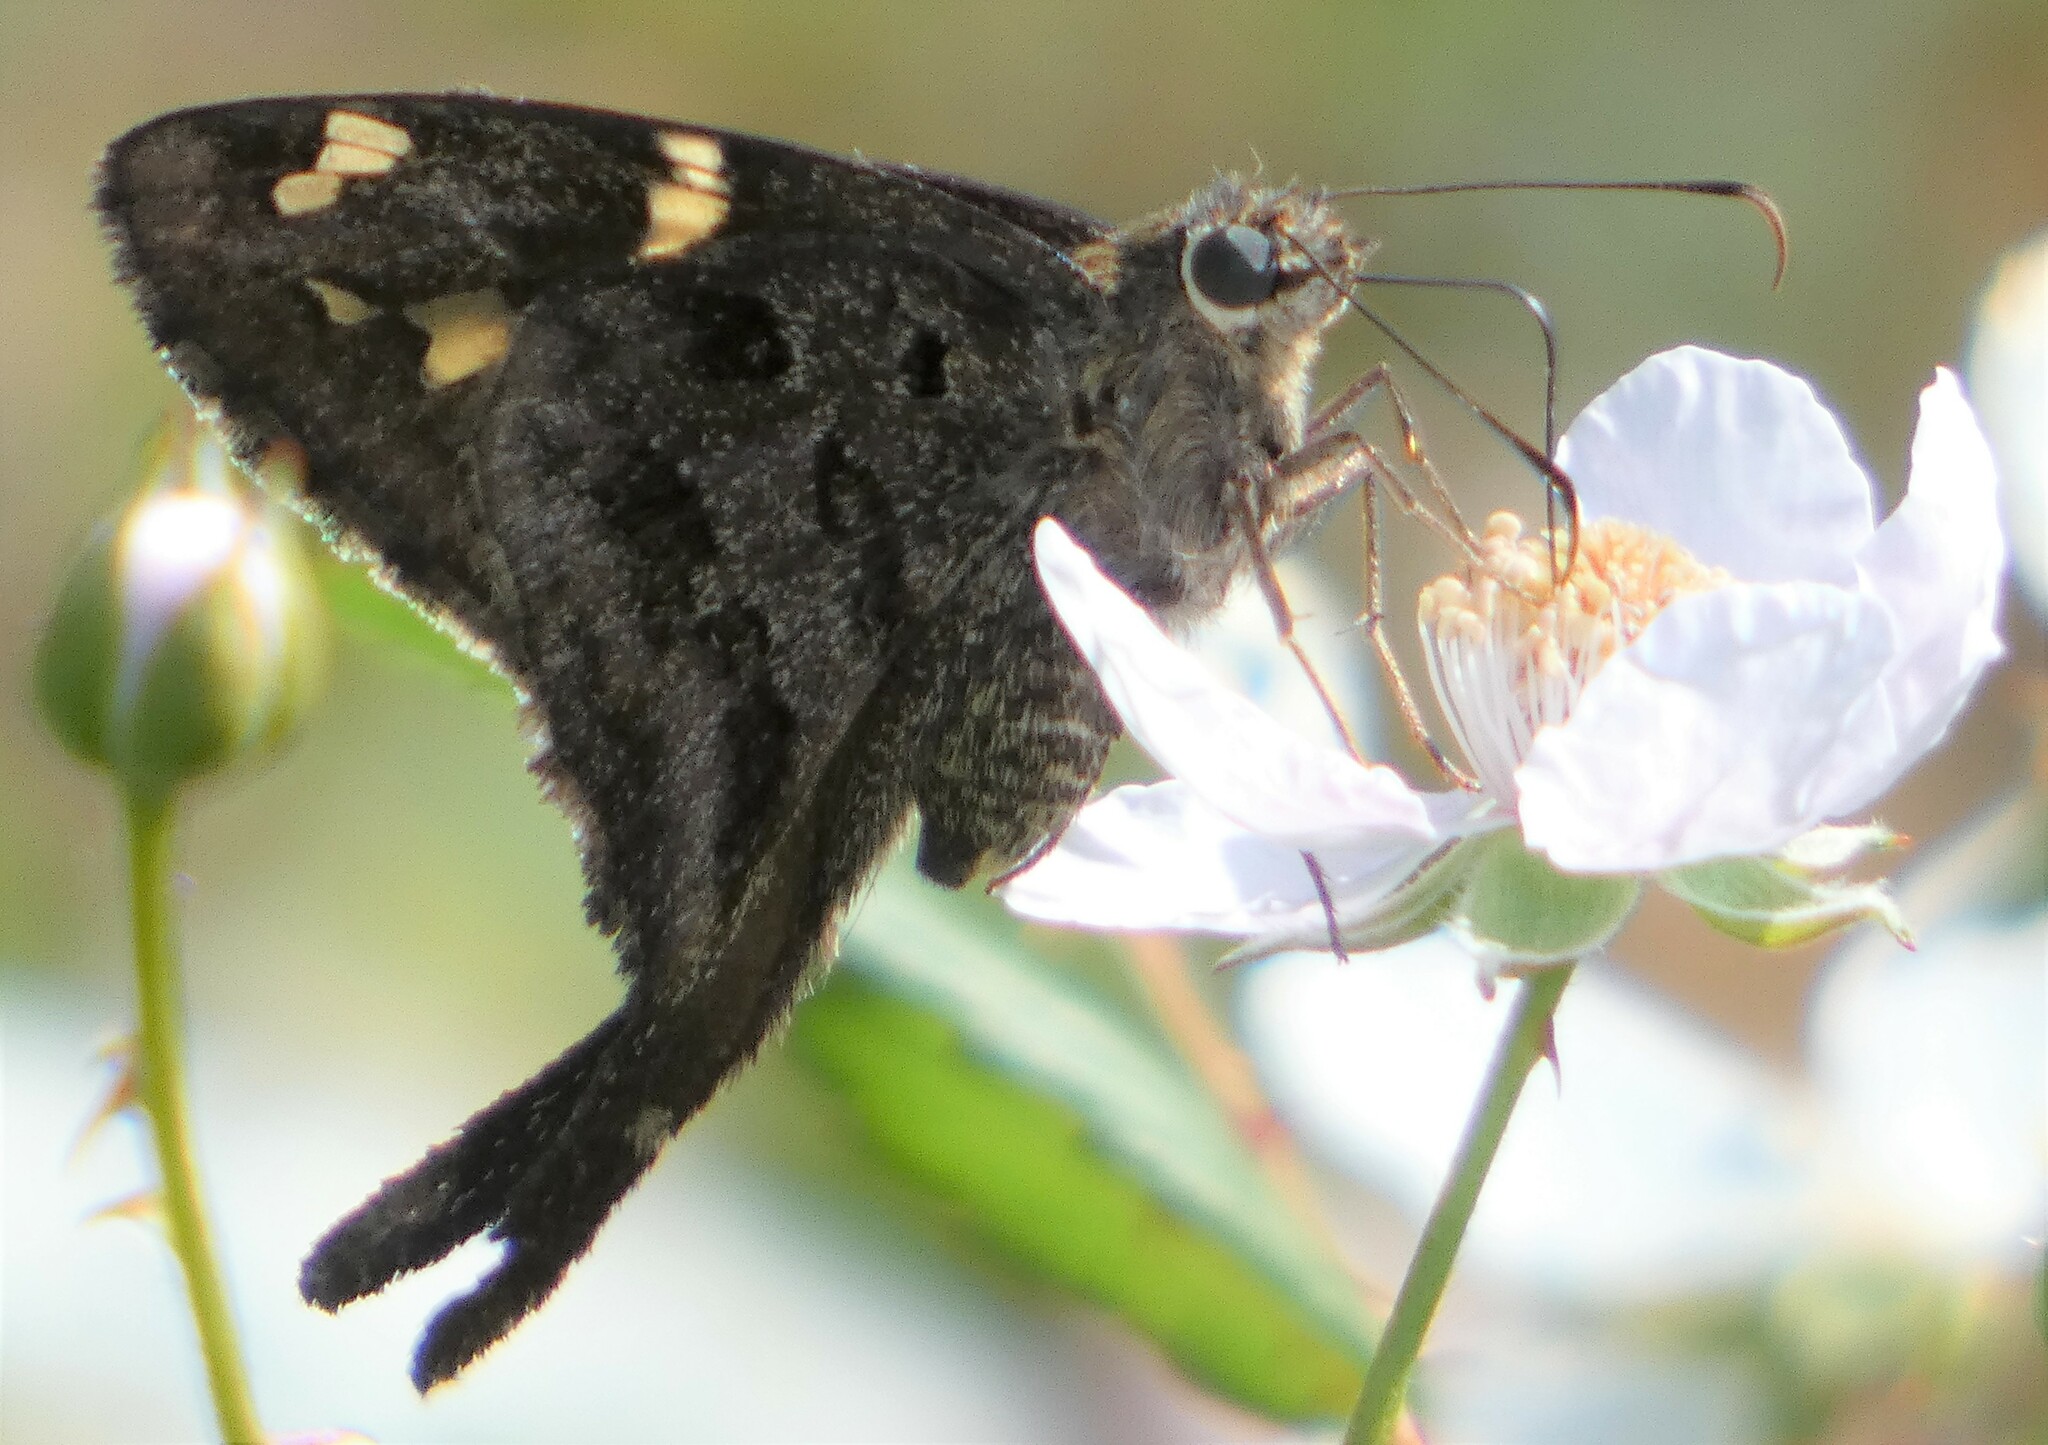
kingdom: Animalia
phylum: Arthropoda
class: Insecta
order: Lepidoptera
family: Hesperiidae
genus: Thorybes
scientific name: Thorybes
